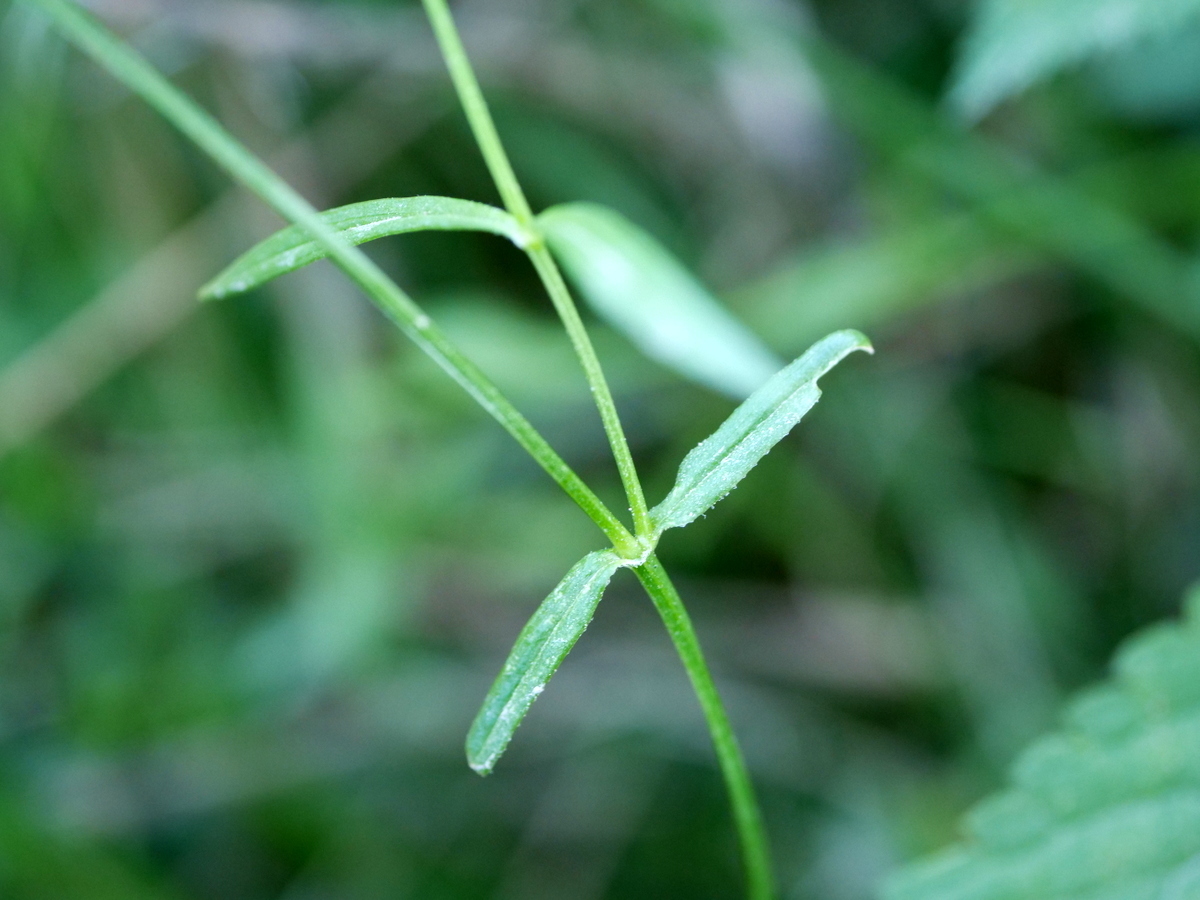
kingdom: Plantae
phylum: Tracheophyta
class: Magnoliopsida
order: Caryophyllales
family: Caryophyllaceae
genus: Stellaria
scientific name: Stellaria graminea
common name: Grass-like starwort
